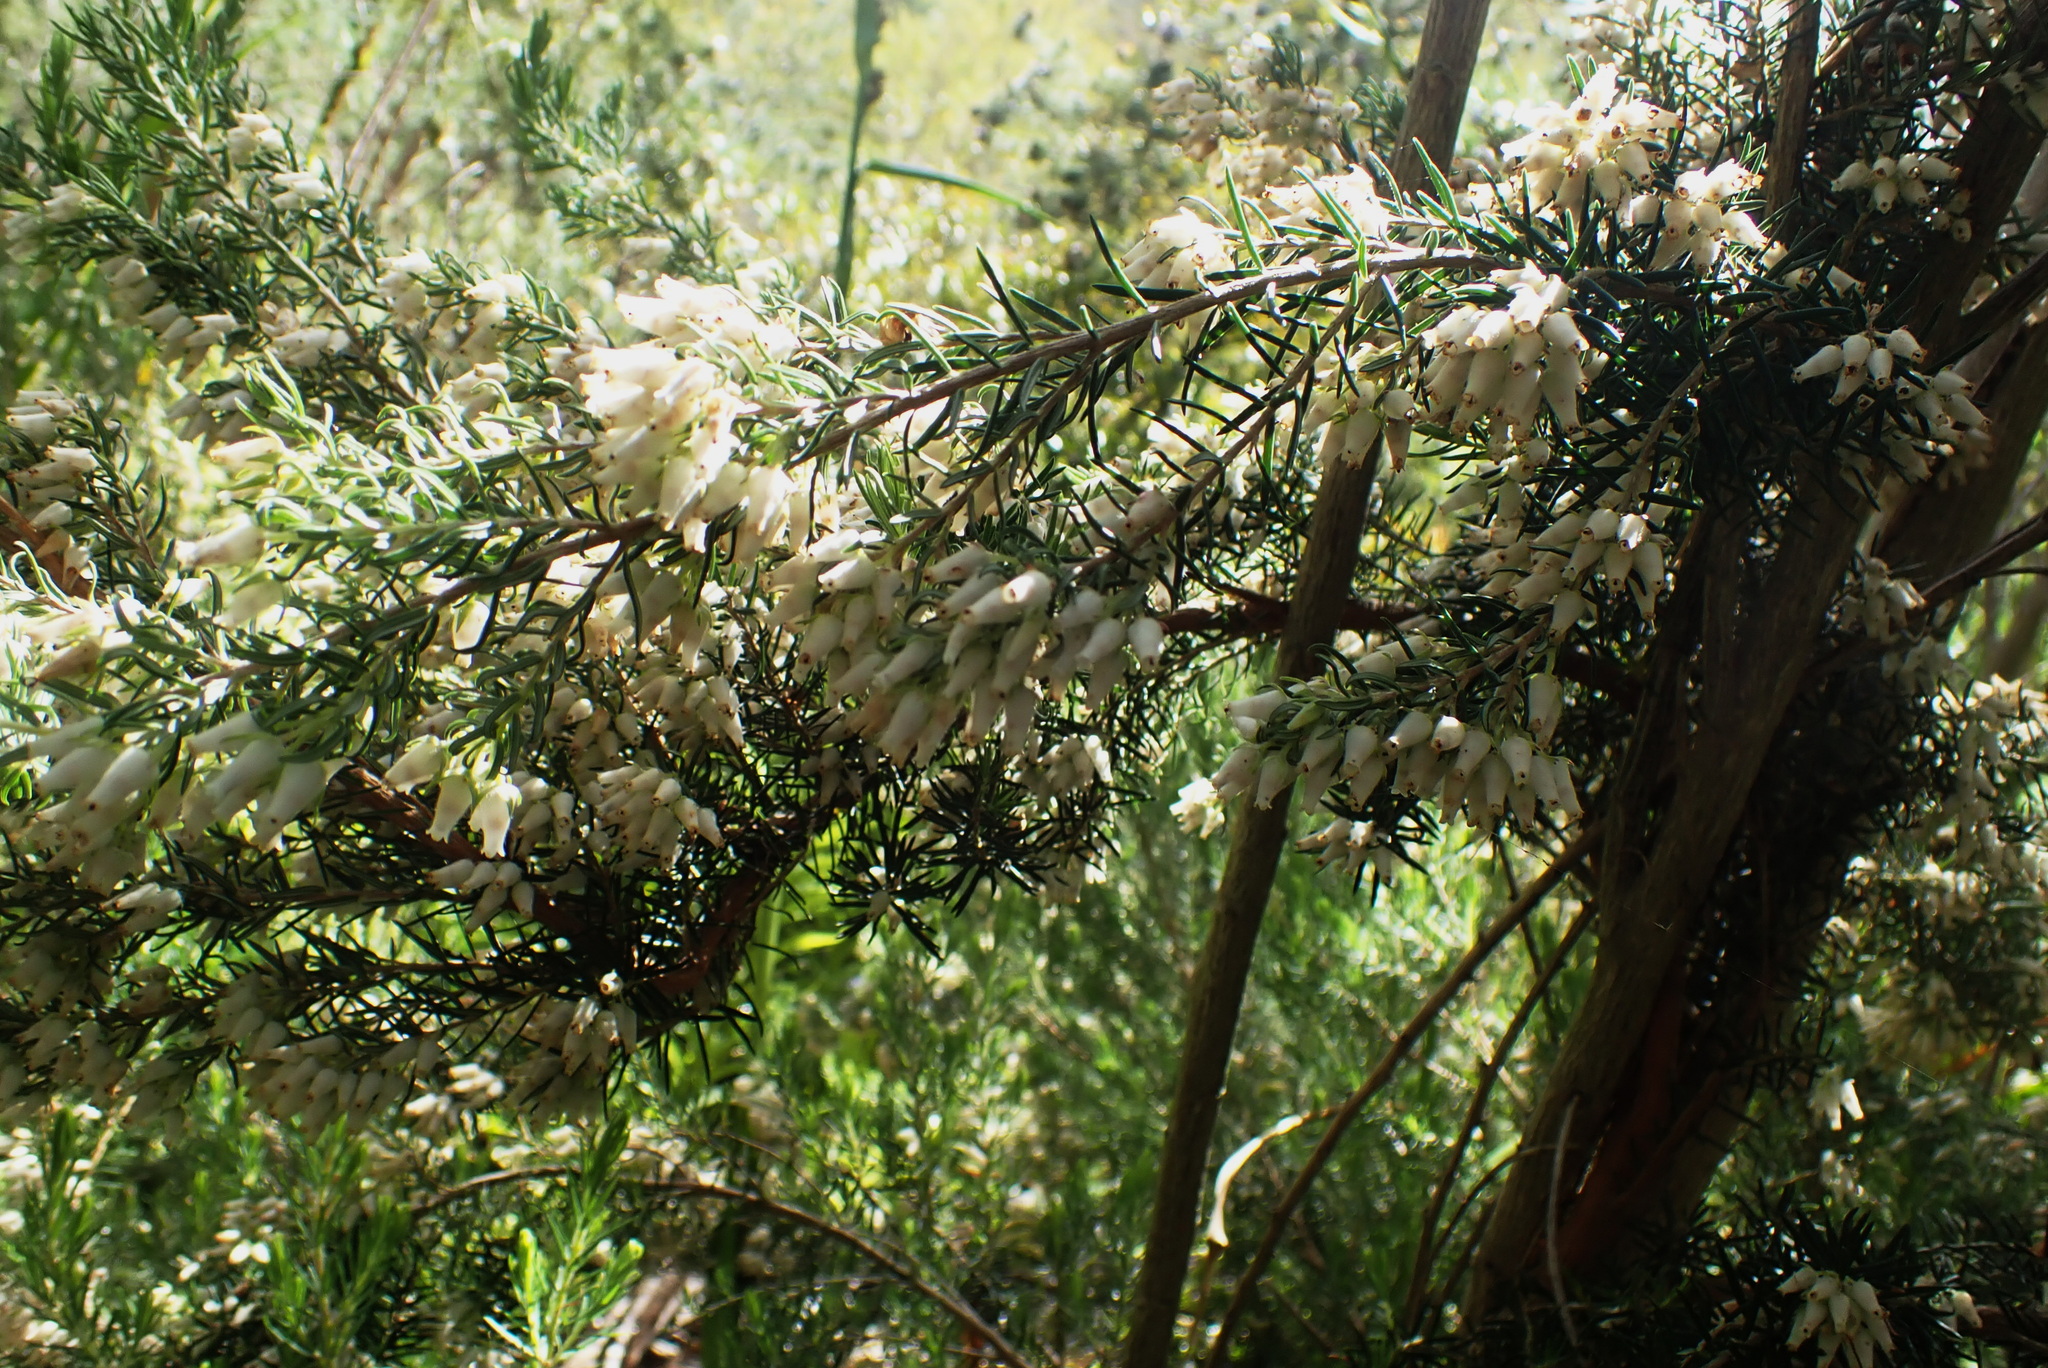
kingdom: Plantae
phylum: Tracheophyta
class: Magnoliopsida
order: Ericales
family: Ericaceae
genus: Erica
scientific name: Erica caffra
